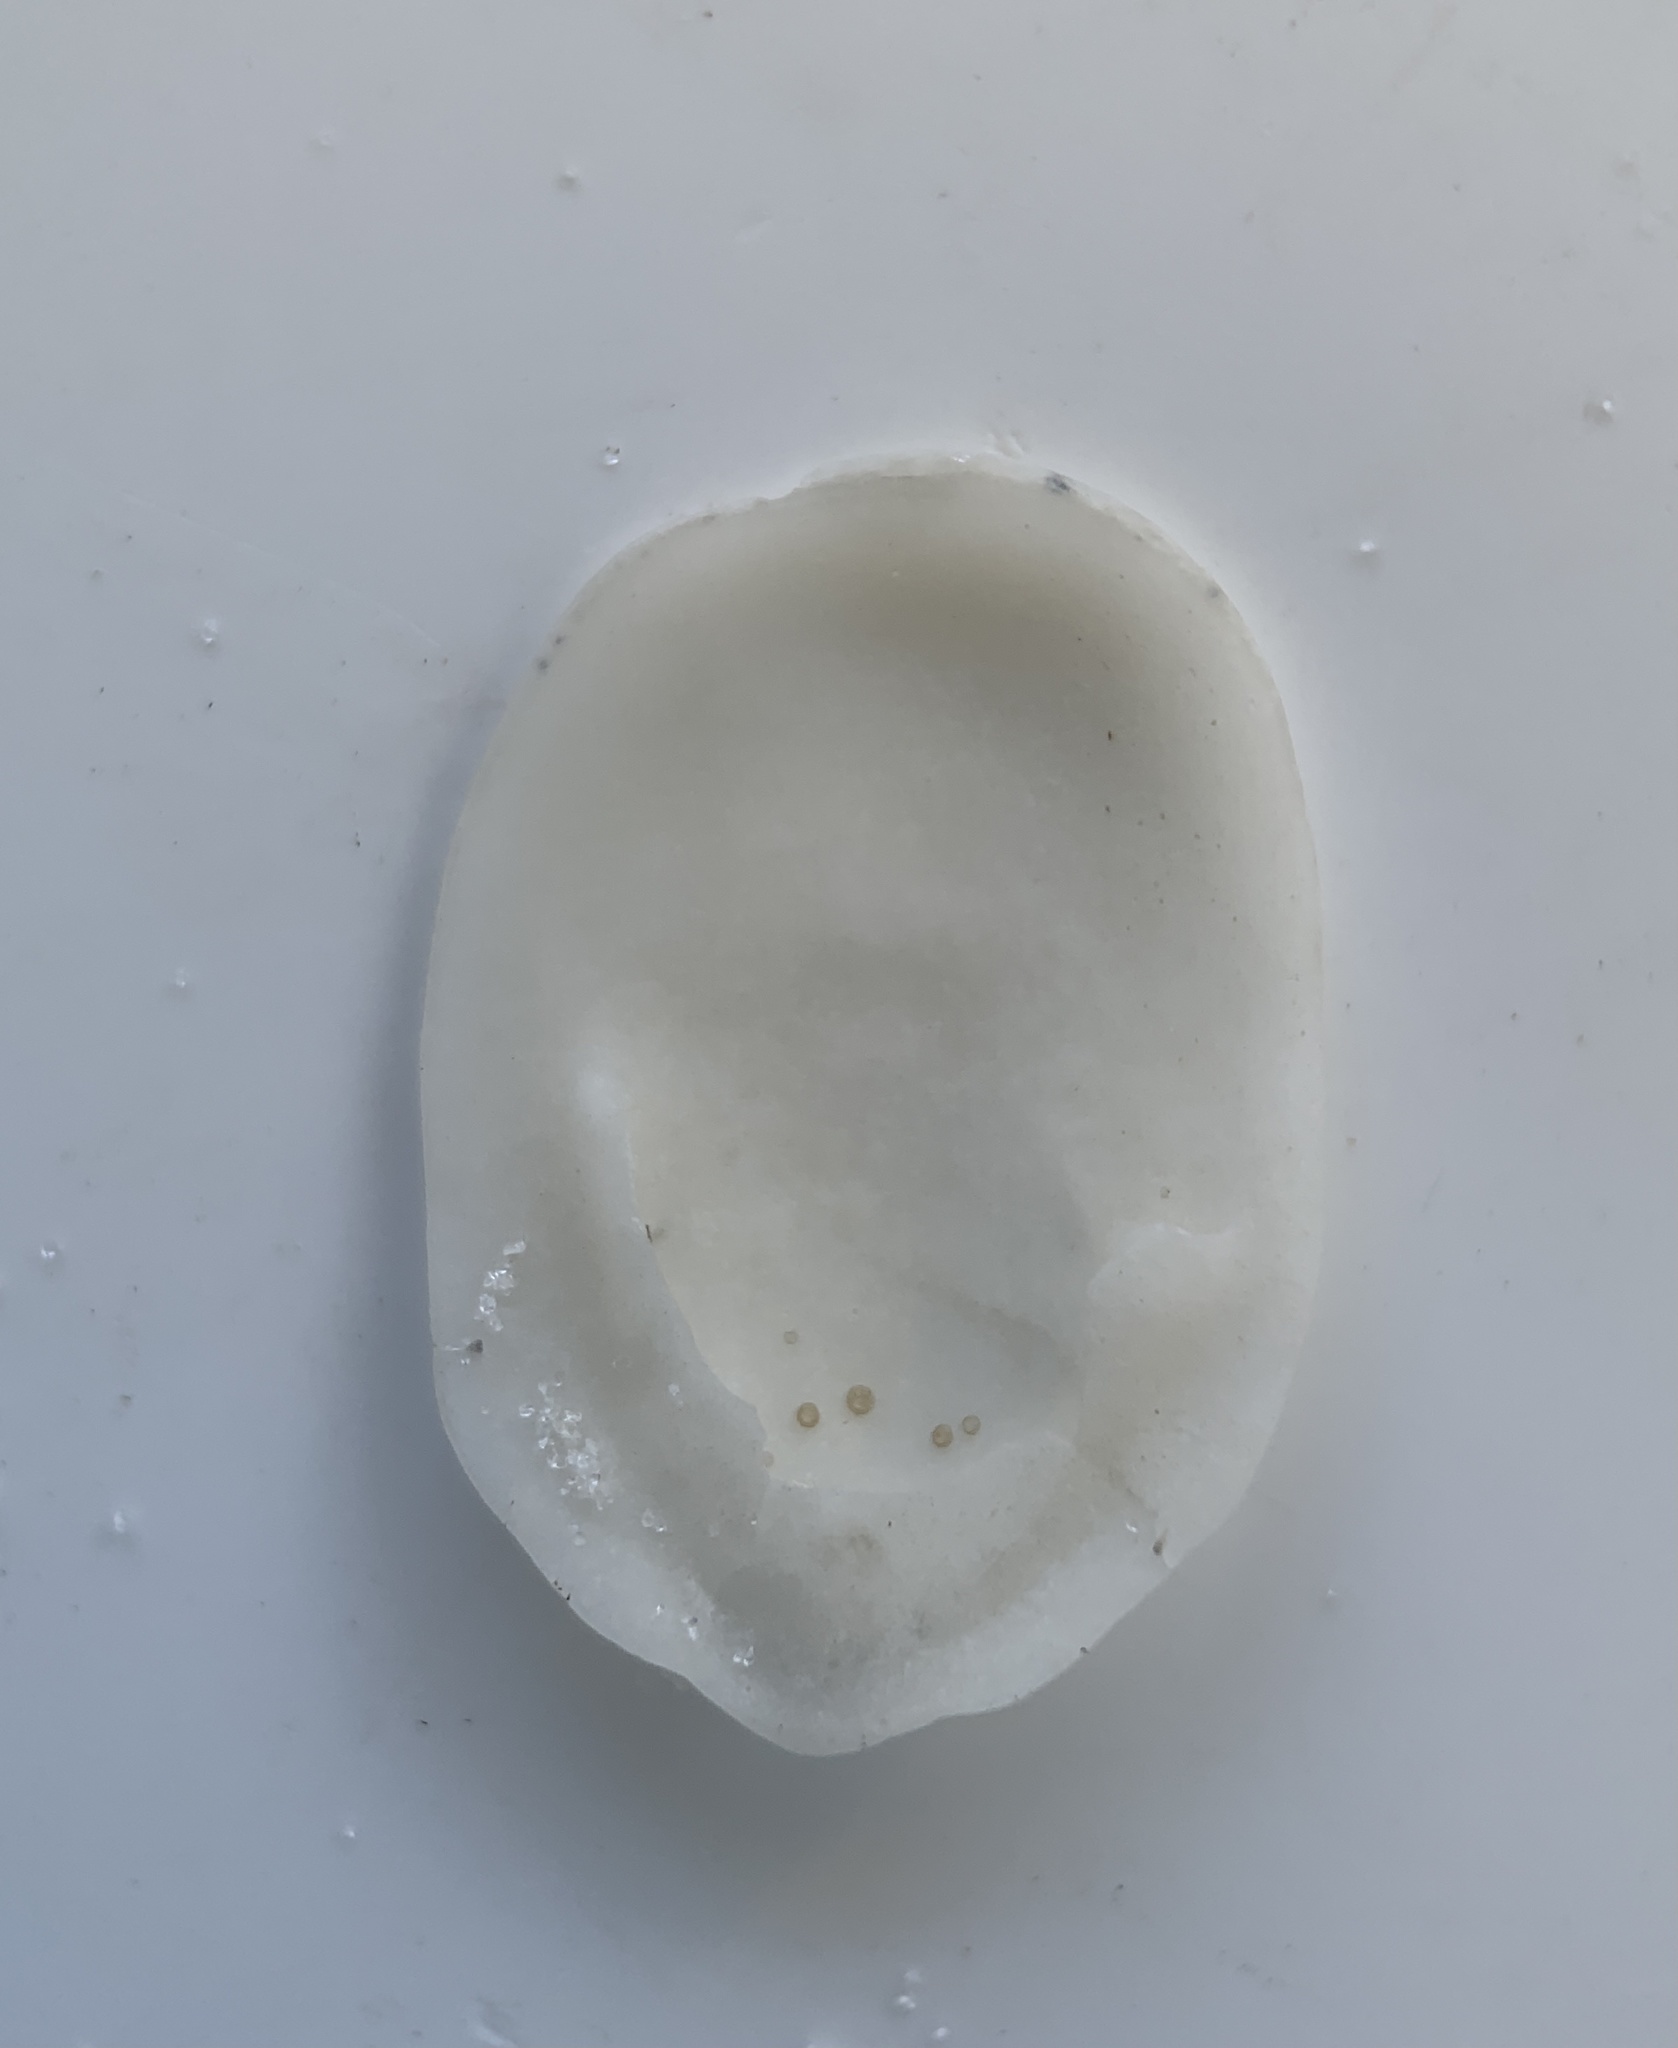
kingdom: Animalia
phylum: Mollusca
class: Gastropoda
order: Littorinimorpha
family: Calyptraeidae
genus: Crepidula
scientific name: Crepidula
